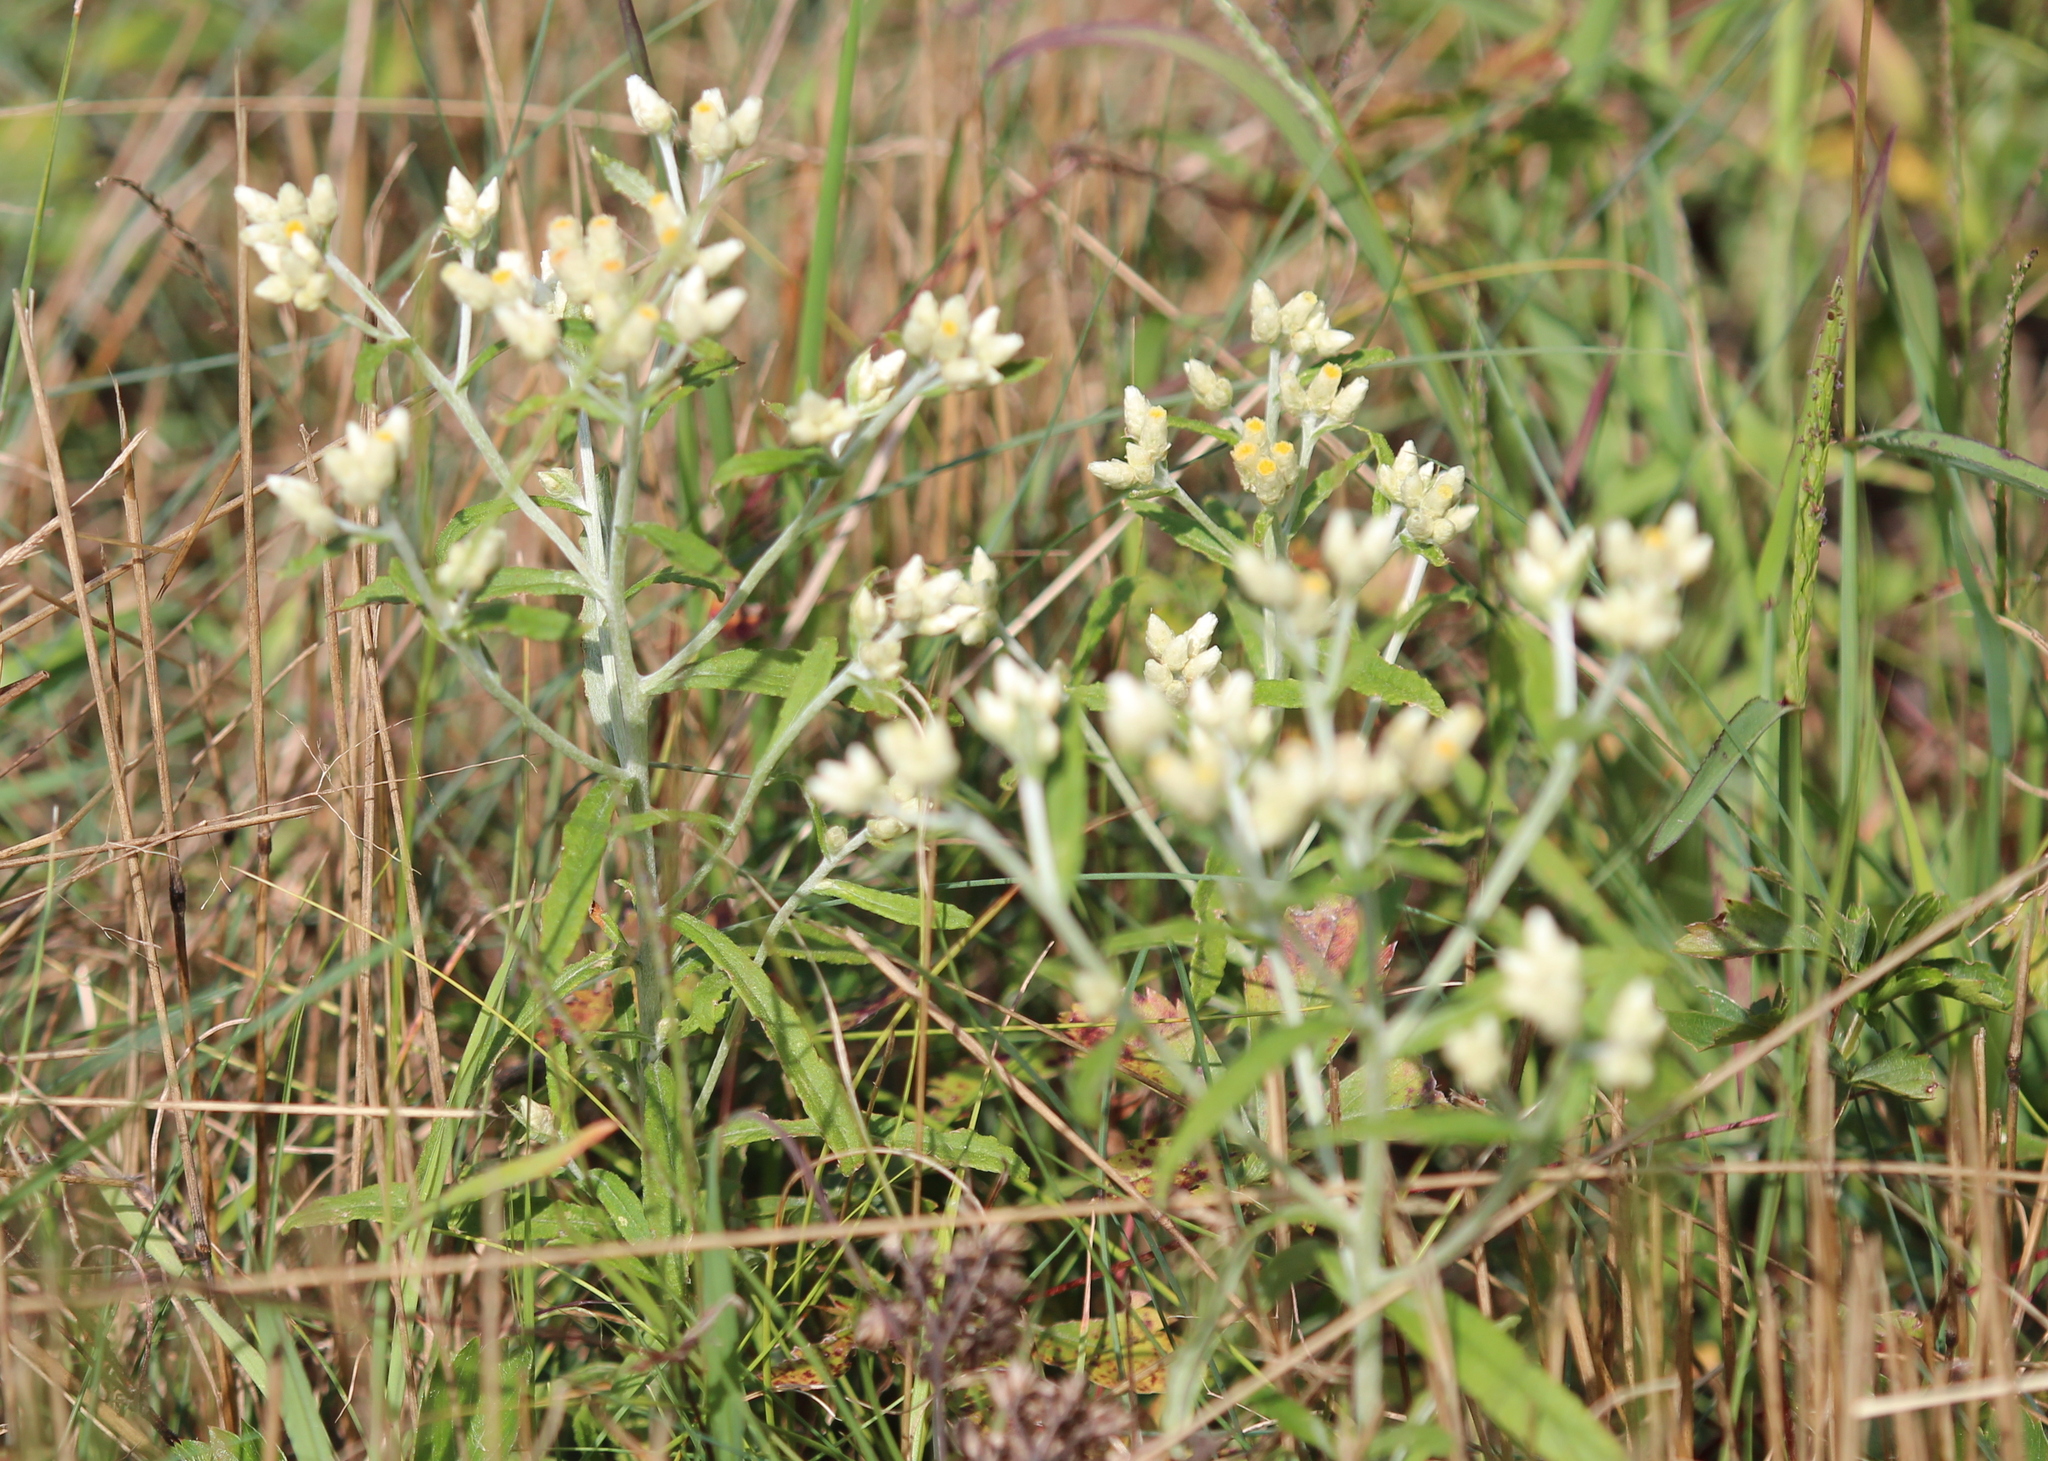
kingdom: Plantae
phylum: Tracheophyta
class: Magnoliopsida
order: Asterales
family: Asteraceae
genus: Pseudognaphalium
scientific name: Pseudognaphalium obtusifolium
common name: Eastern rabbit-tobacco
